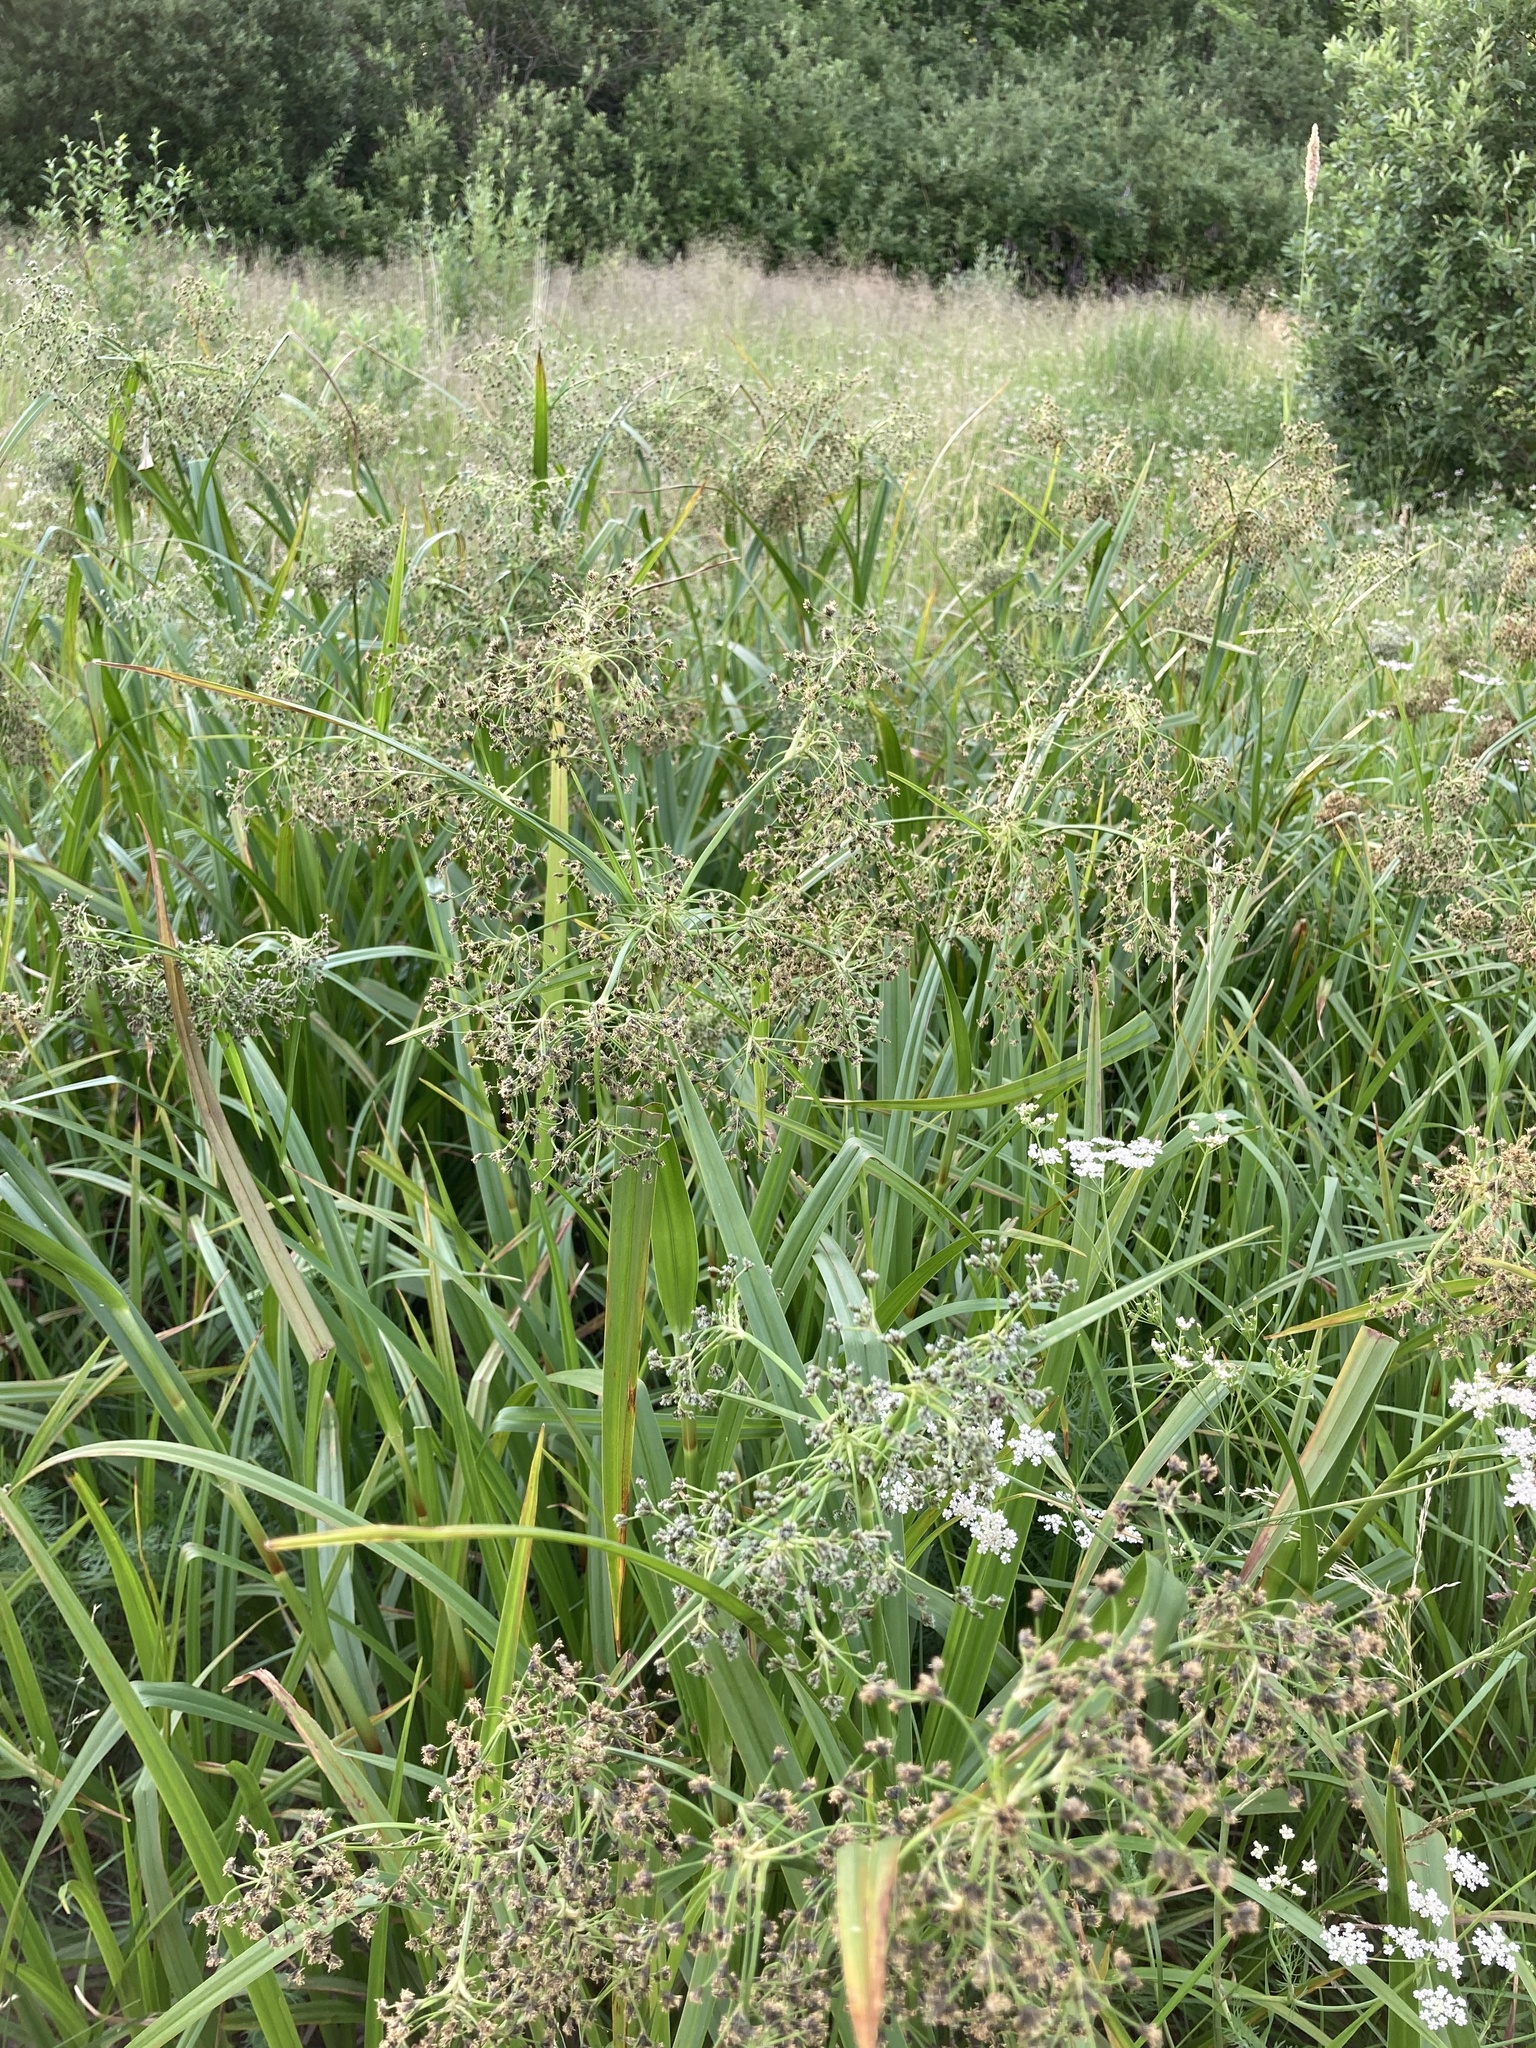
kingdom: Plantae
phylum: Tracheophyta
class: Liliopsida
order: Poales
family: Cyperaceae
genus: Scirpus
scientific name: Scirpus sylvaticus
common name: Wood club-rush
